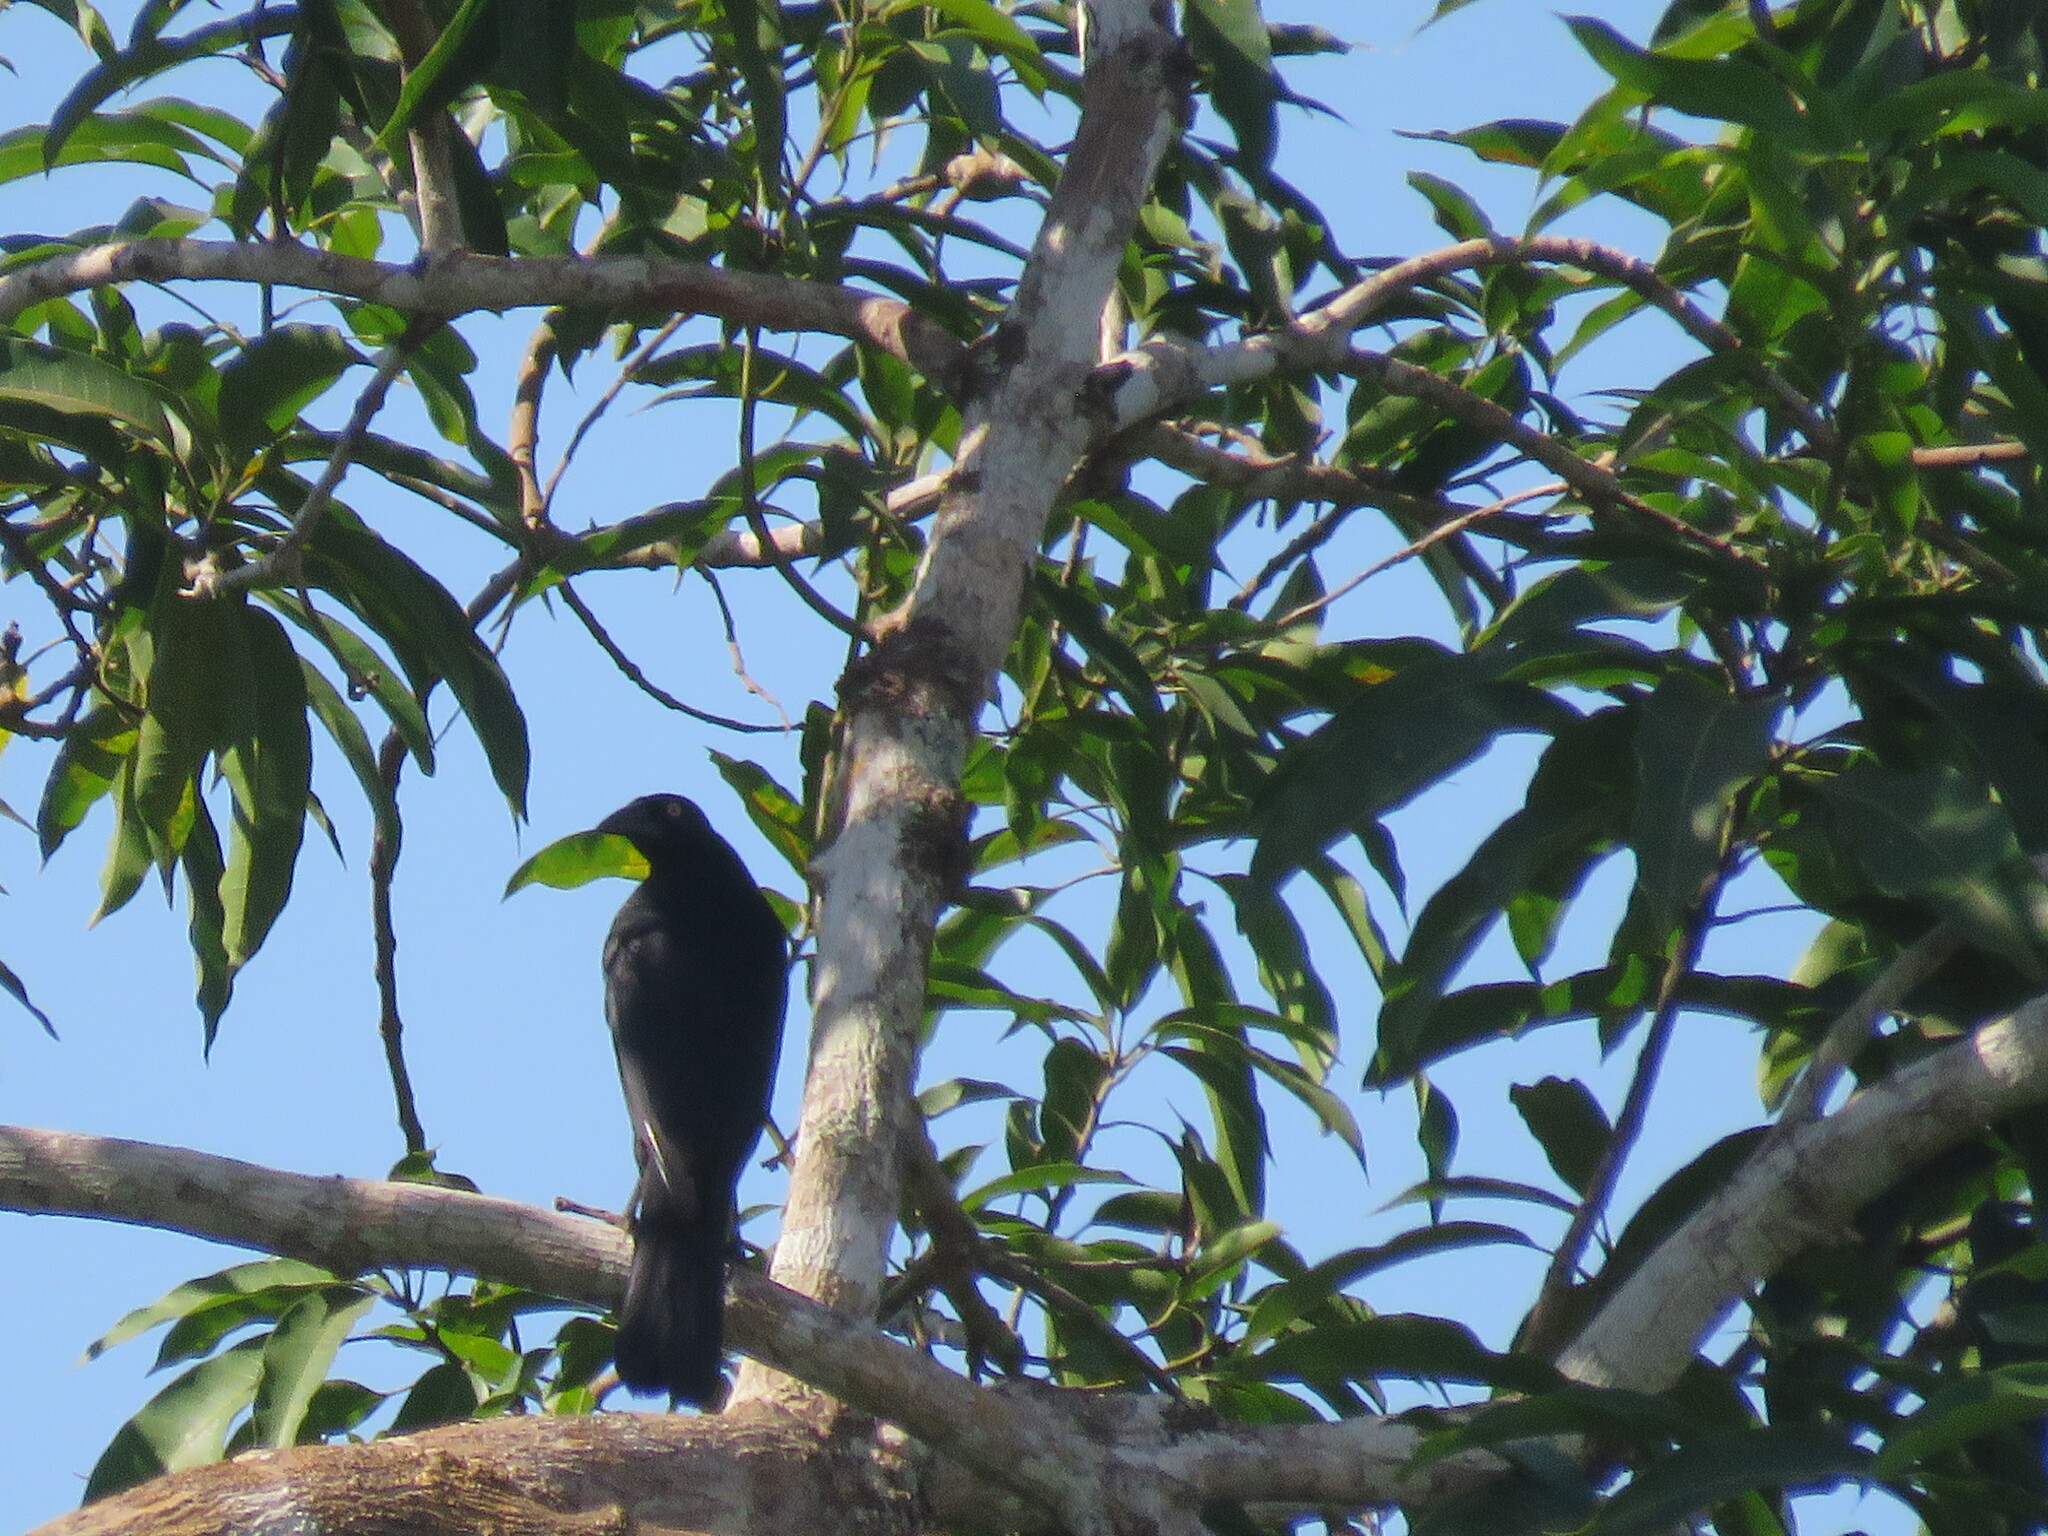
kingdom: Animalia
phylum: Chordata
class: Aves
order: Passeriformes
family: Icteridae
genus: Molothrus
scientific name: Molothrus oryzivorus
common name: Giant cowbird
